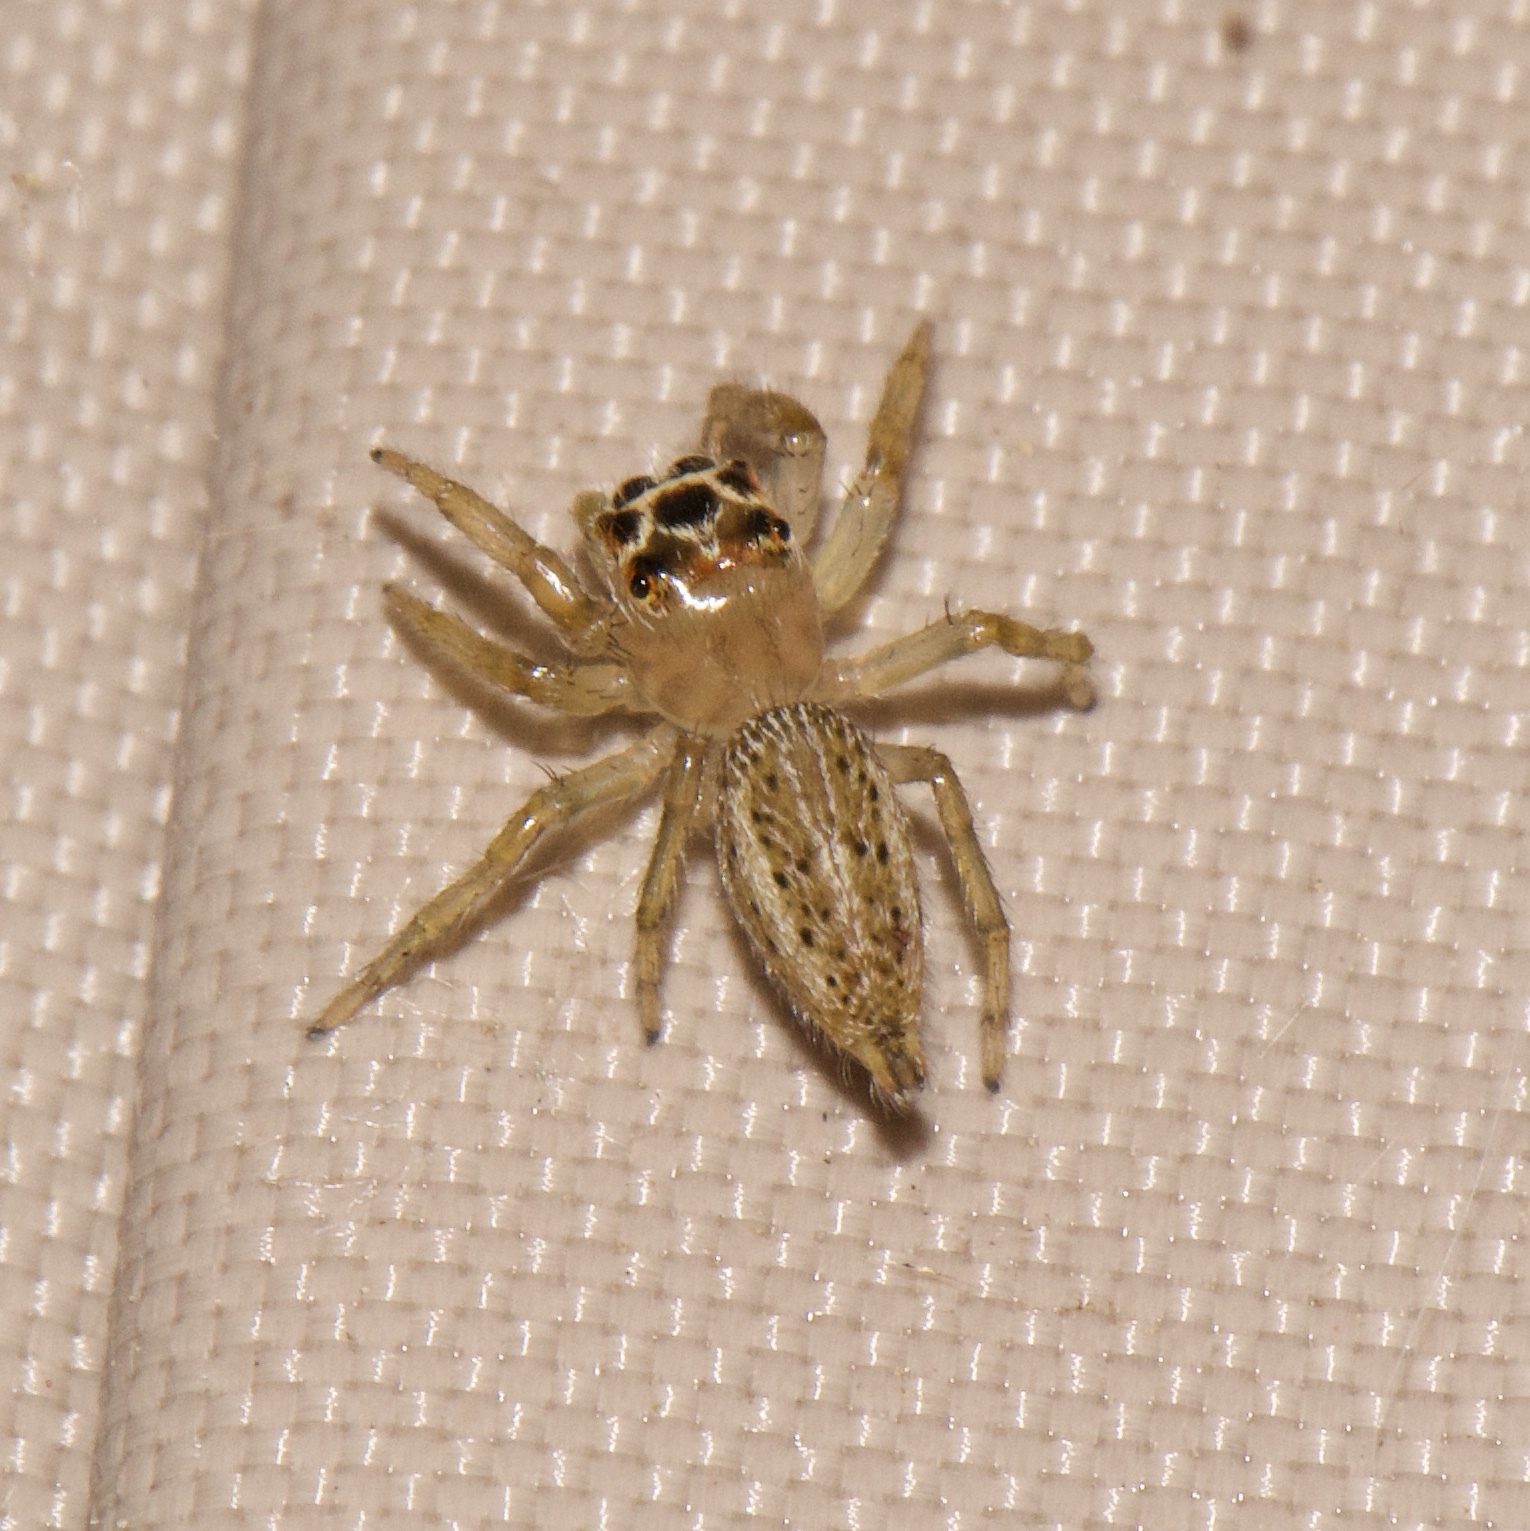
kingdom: Animalia
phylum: Arthropoda
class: Arachnida
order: Araneae
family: Salticidae
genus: Colonus
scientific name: Colonus sylvanus
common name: Jumping spiders
